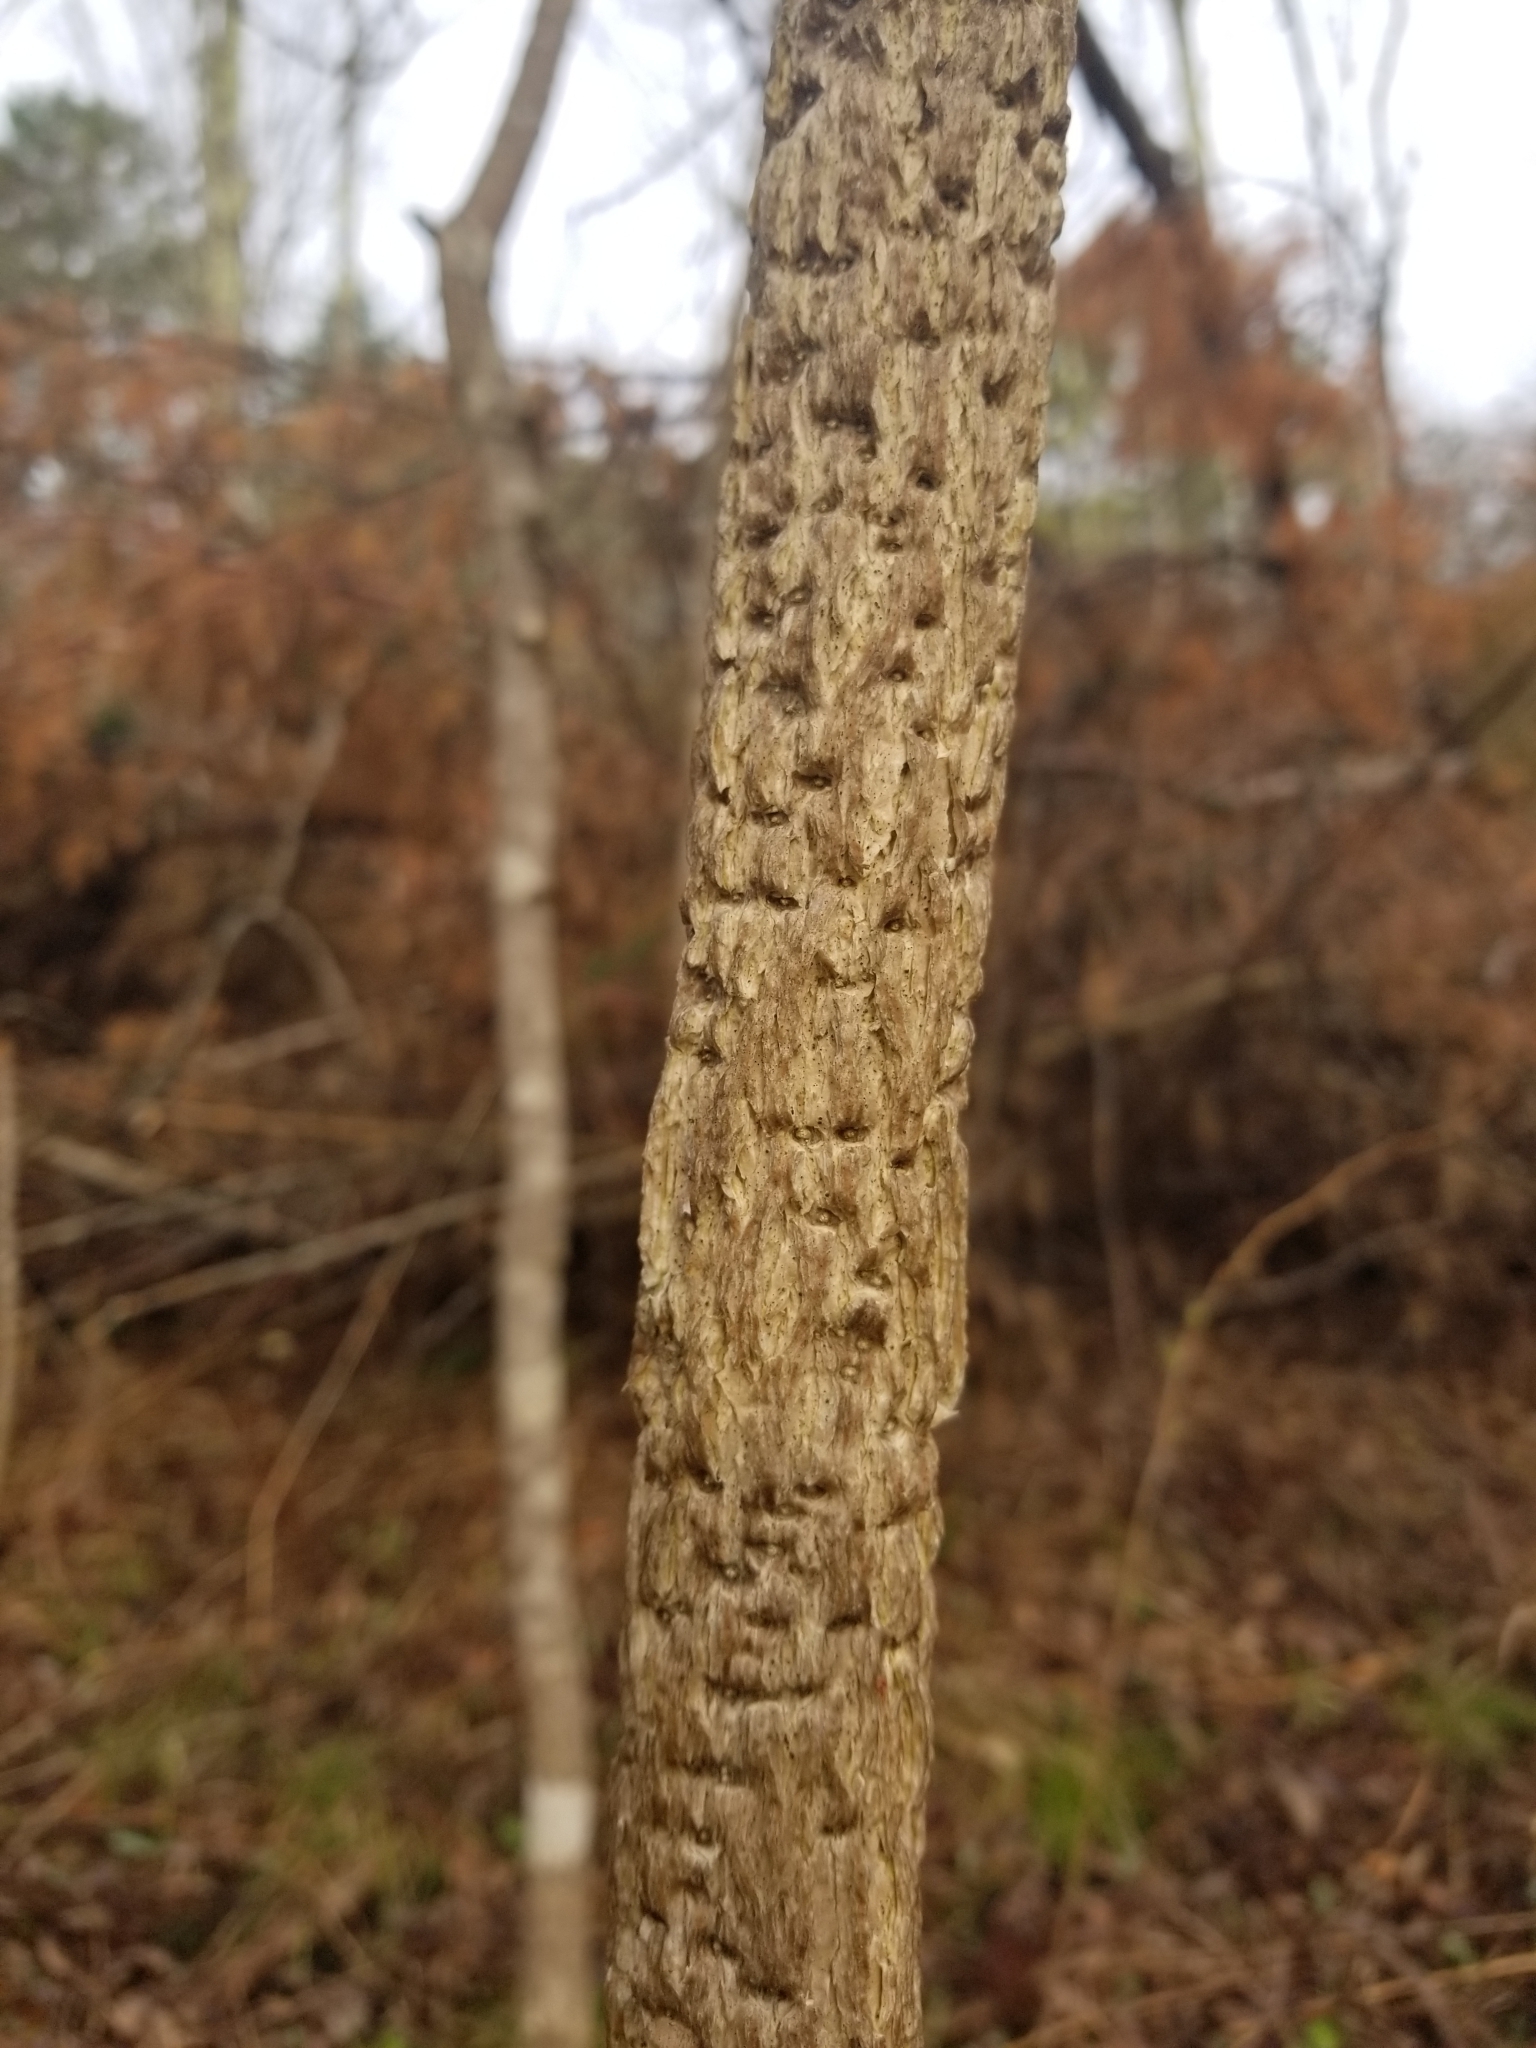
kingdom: Plantae
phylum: Tracheophyta
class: Magnoliopsida
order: Lamiales
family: Oleaceae
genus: Fraxinus
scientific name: Fraxinus nigra
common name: Black ash
